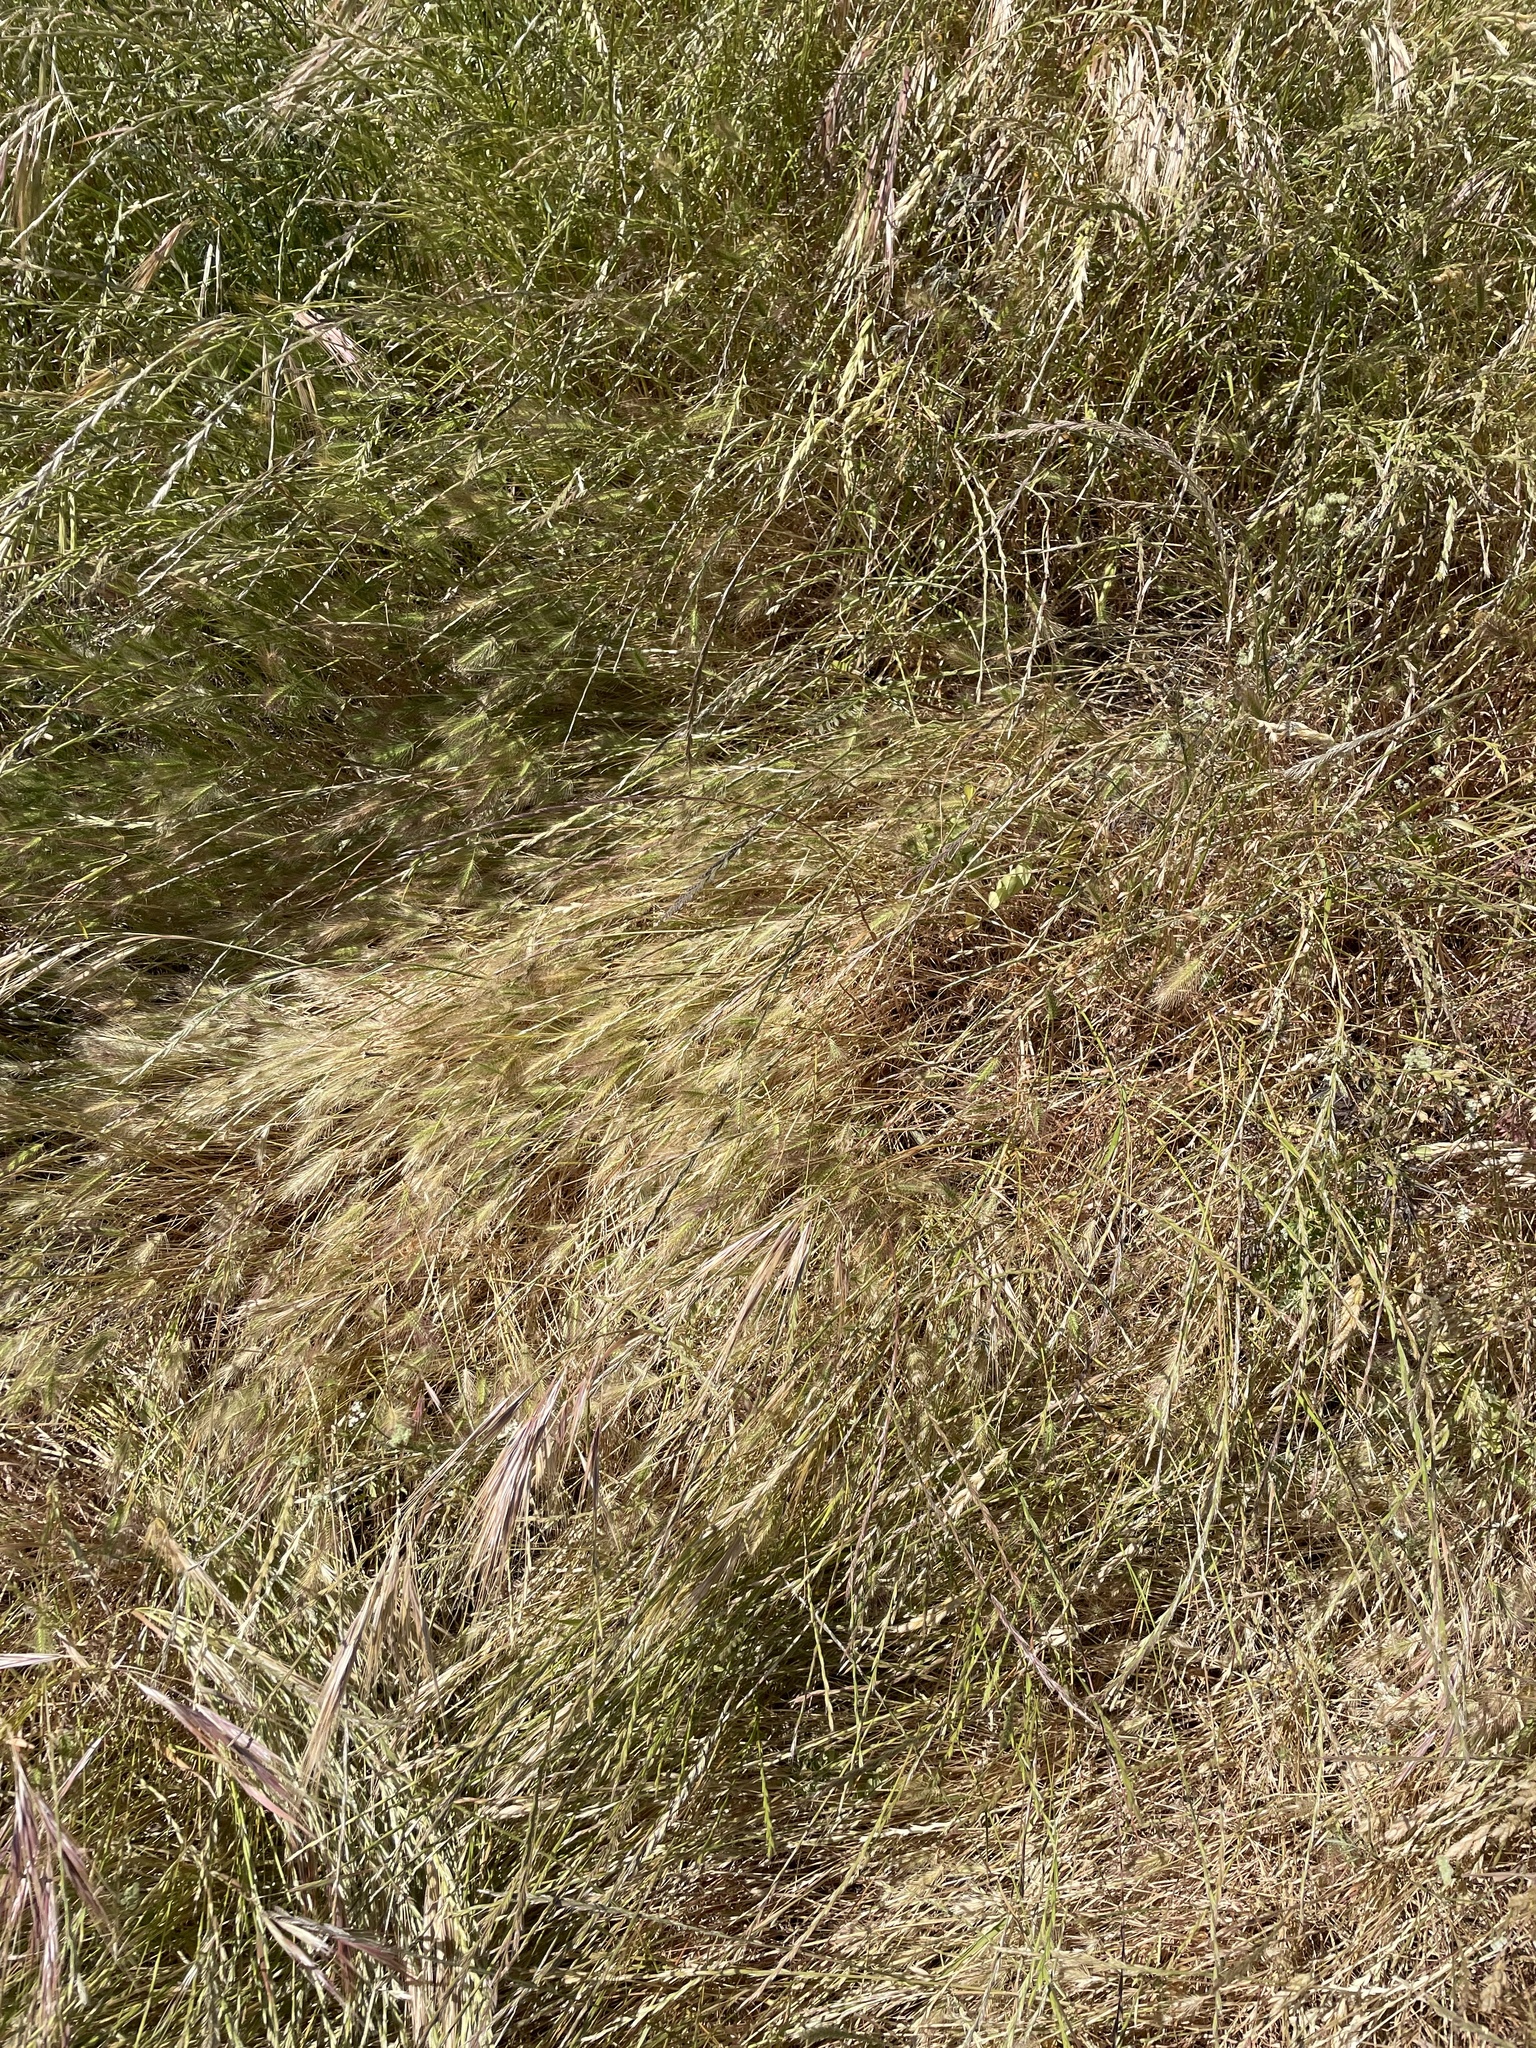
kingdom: Plantae
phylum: Tracheophyta
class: Liliopsida
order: Poales
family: Poaceae
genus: Hordeum
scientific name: Hordeum marinum
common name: Sea barley
